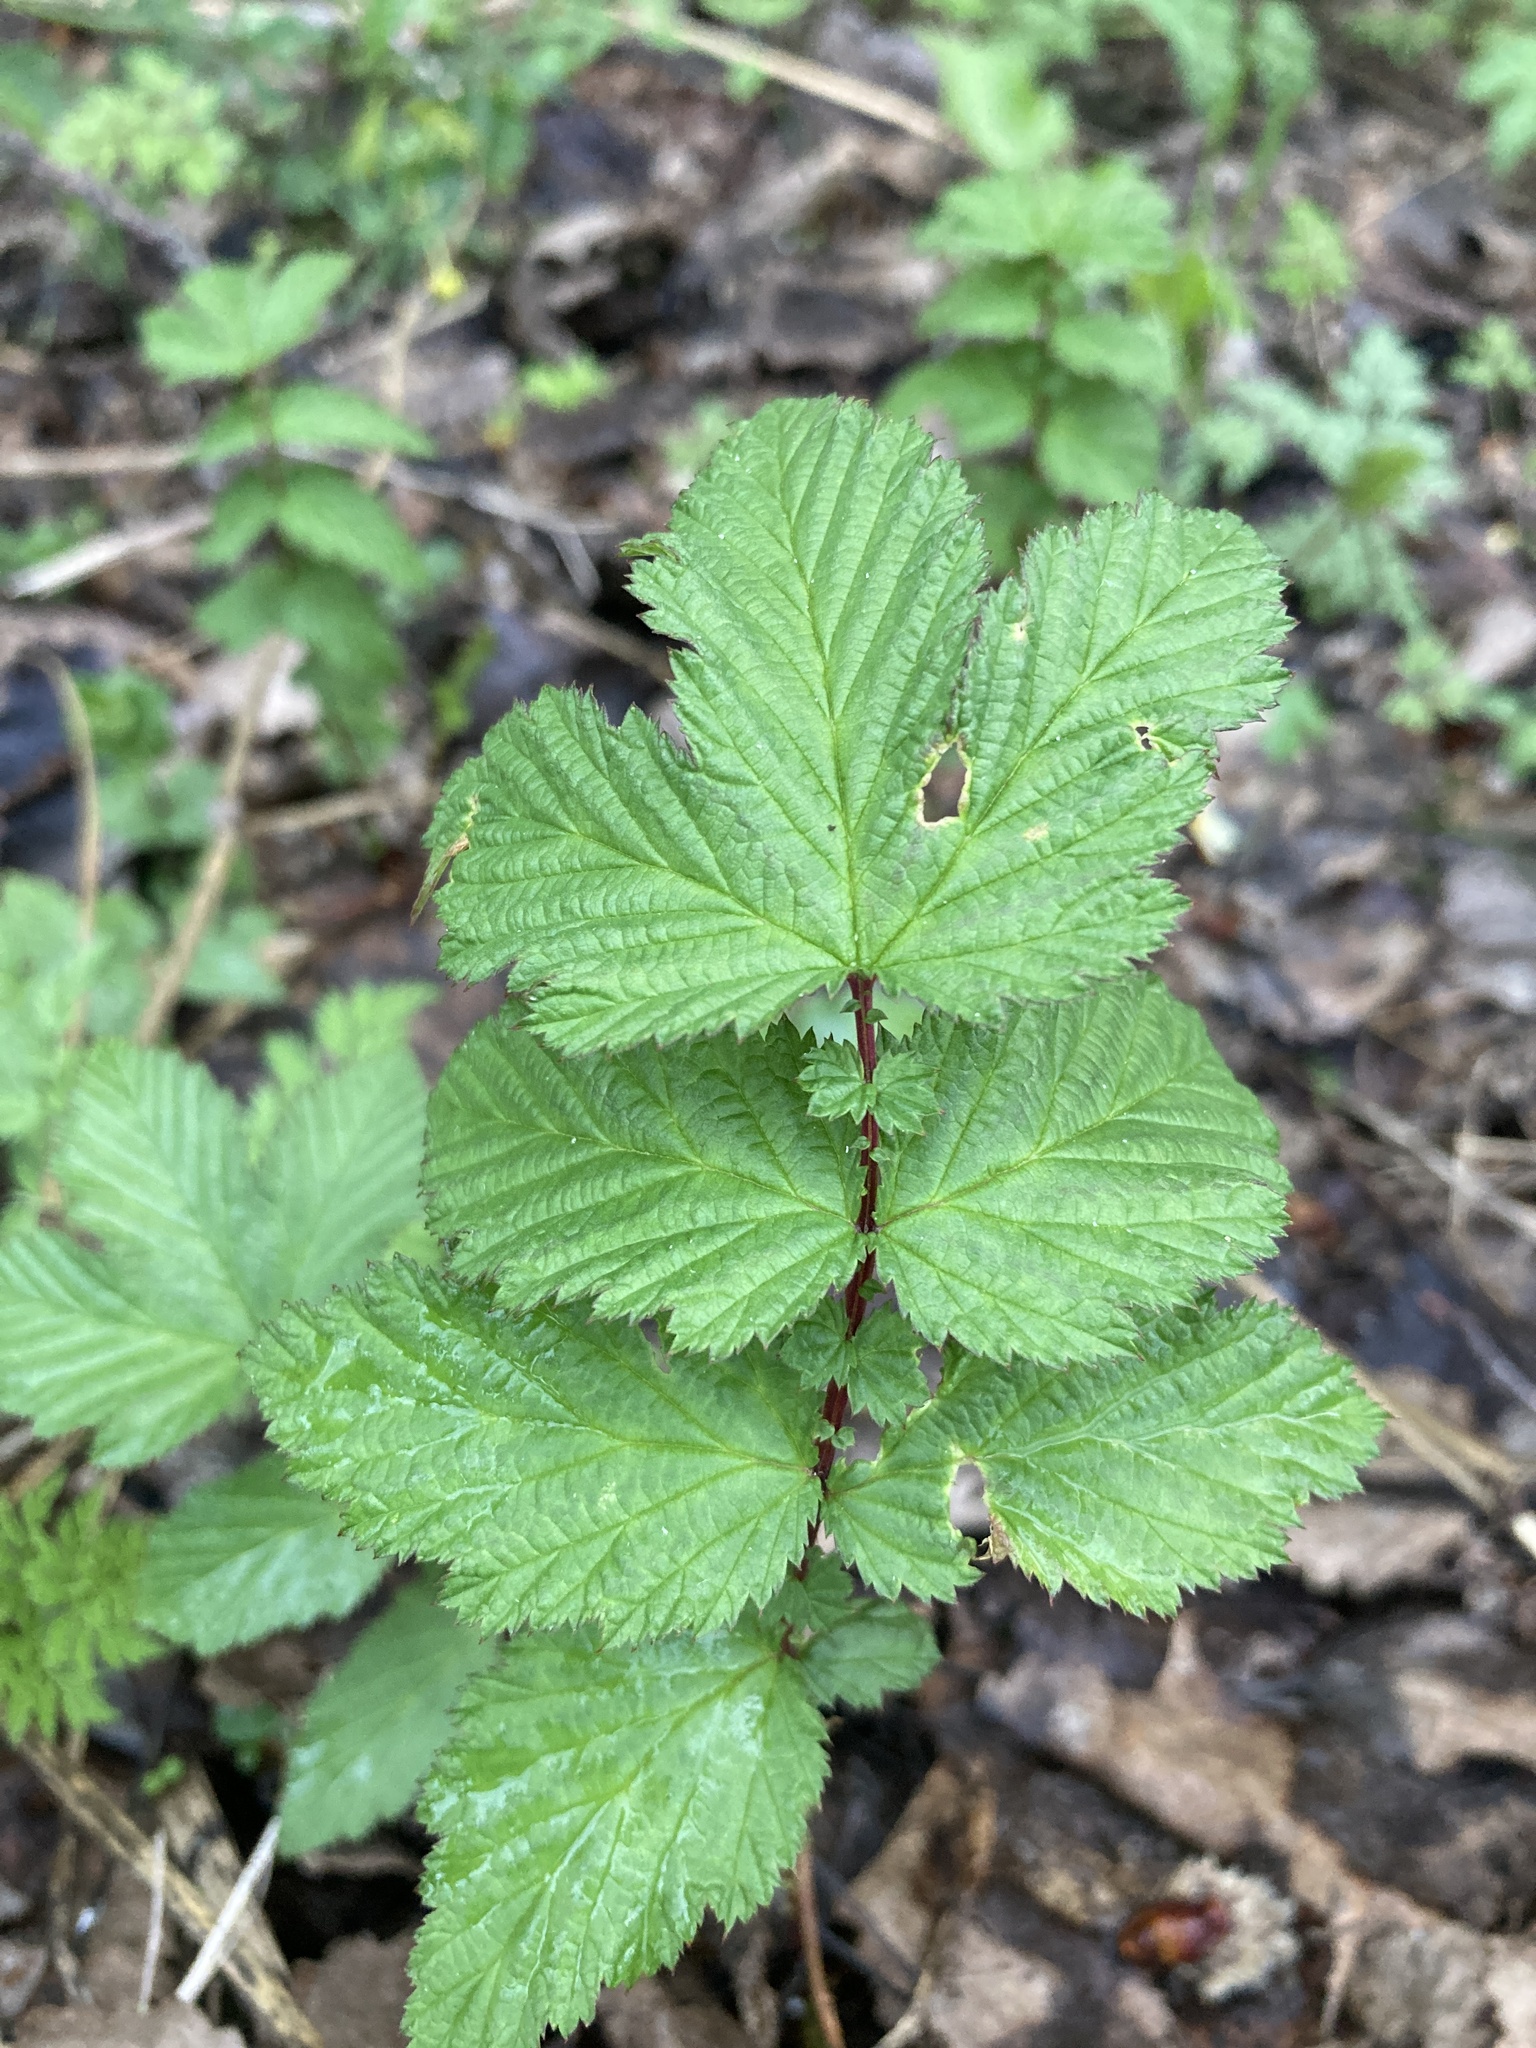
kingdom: Plantae
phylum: Tracheophyta
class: Magnoliopsida
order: Rosales
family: Rosaceae
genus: Filipendula
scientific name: Filipendula ulmaria
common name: Meadowsweet
